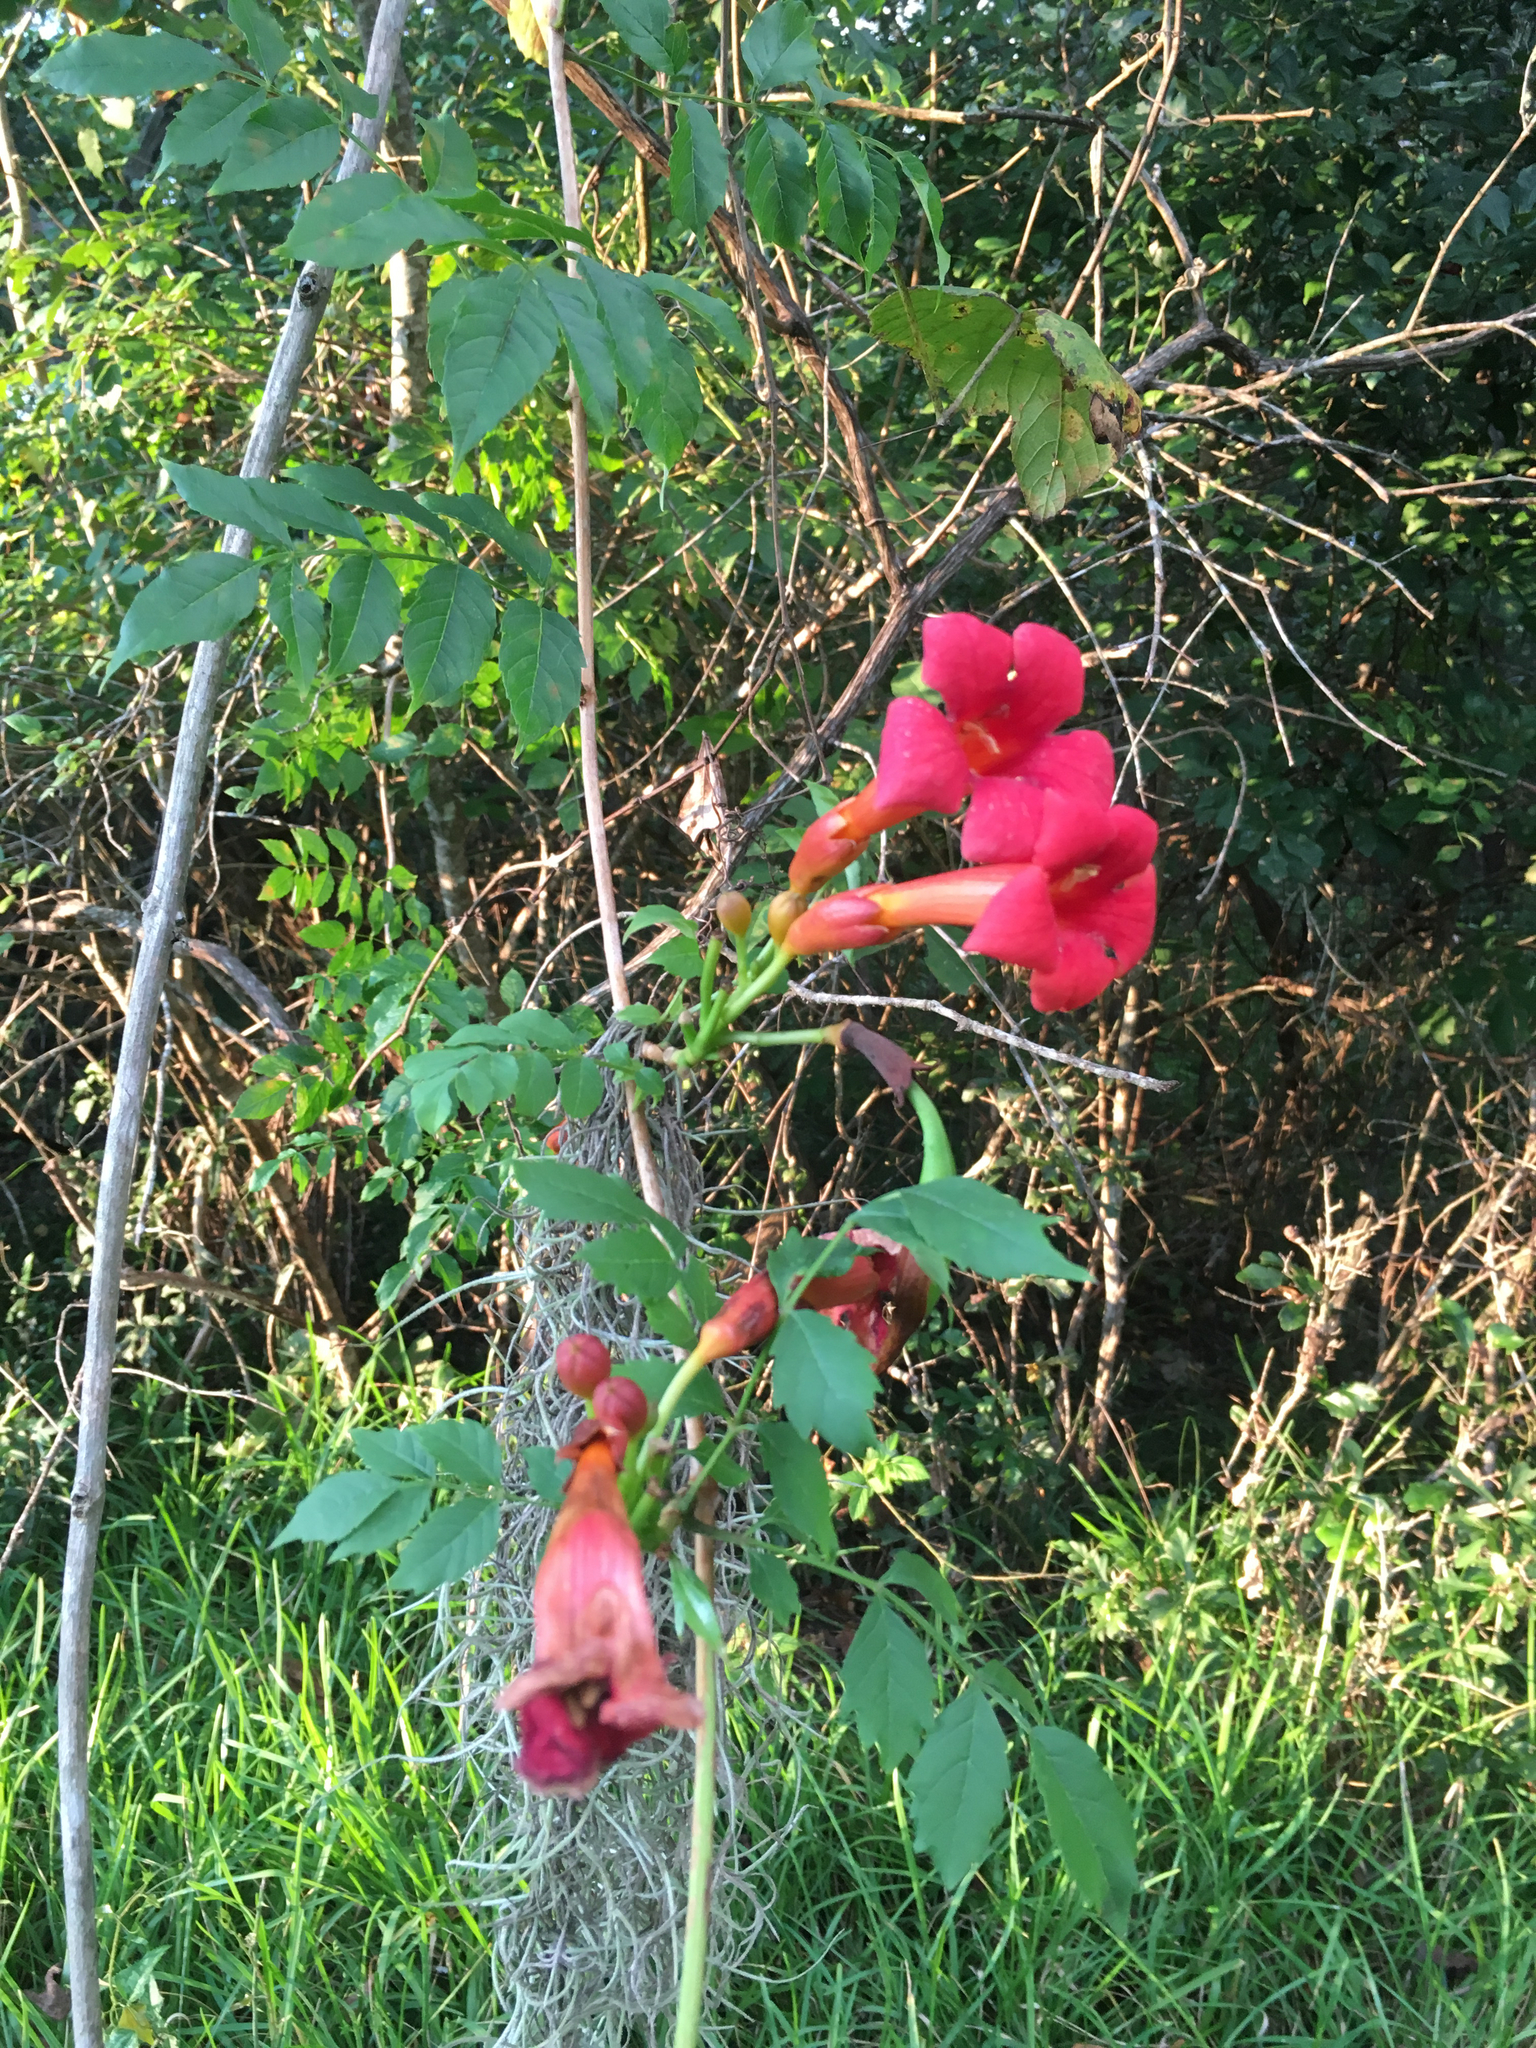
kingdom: Plantae
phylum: Tracheophyta
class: Magnoliopsida
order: Lamiales
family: Bignoniaceae
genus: Campsis
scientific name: Campsis radicans
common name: Trumpet-creeper
